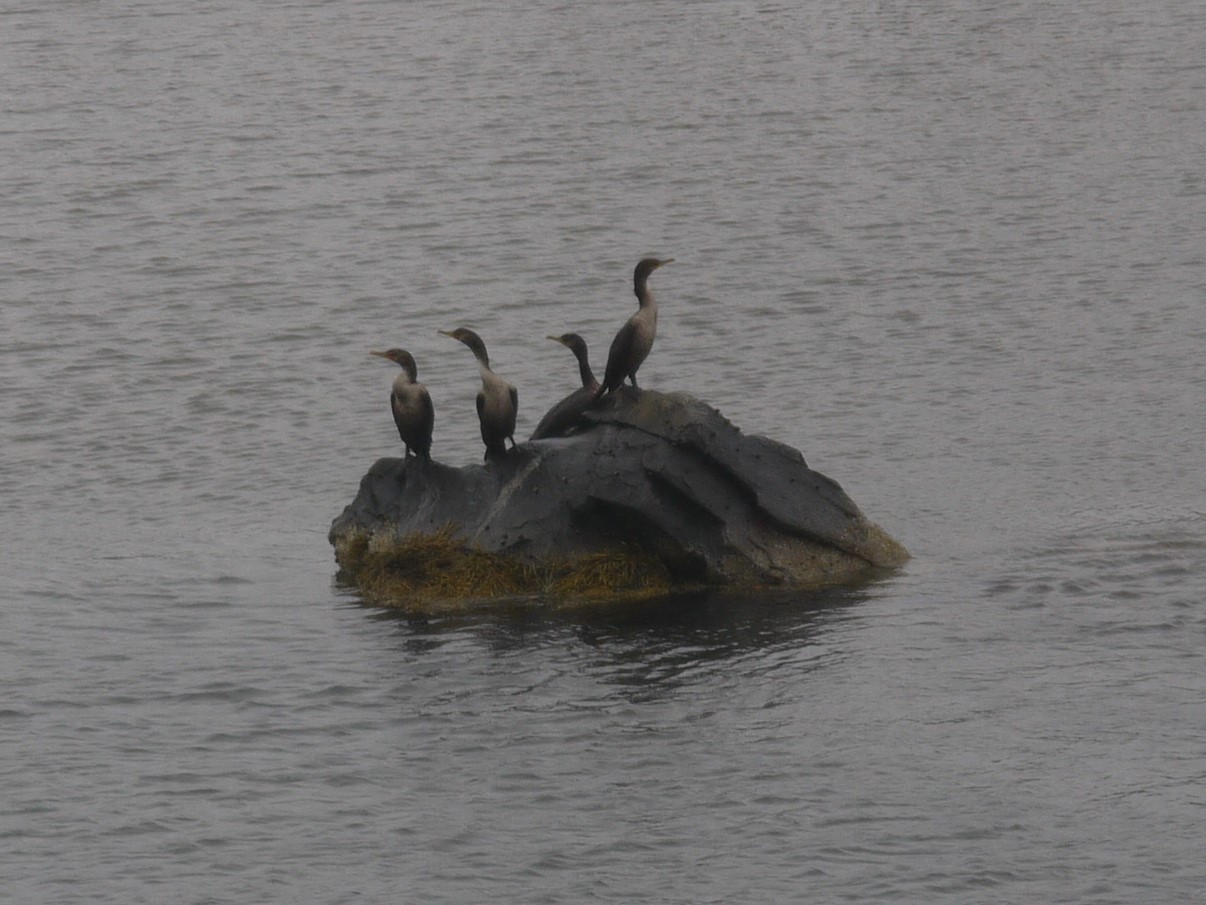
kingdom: Animalia
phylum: Chordata
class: Aves
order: Suliformes
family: Phalacrocoracidae
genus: Phalacrocorax
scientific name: Phalacrocorax auritus
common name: Double-crested cormorant
